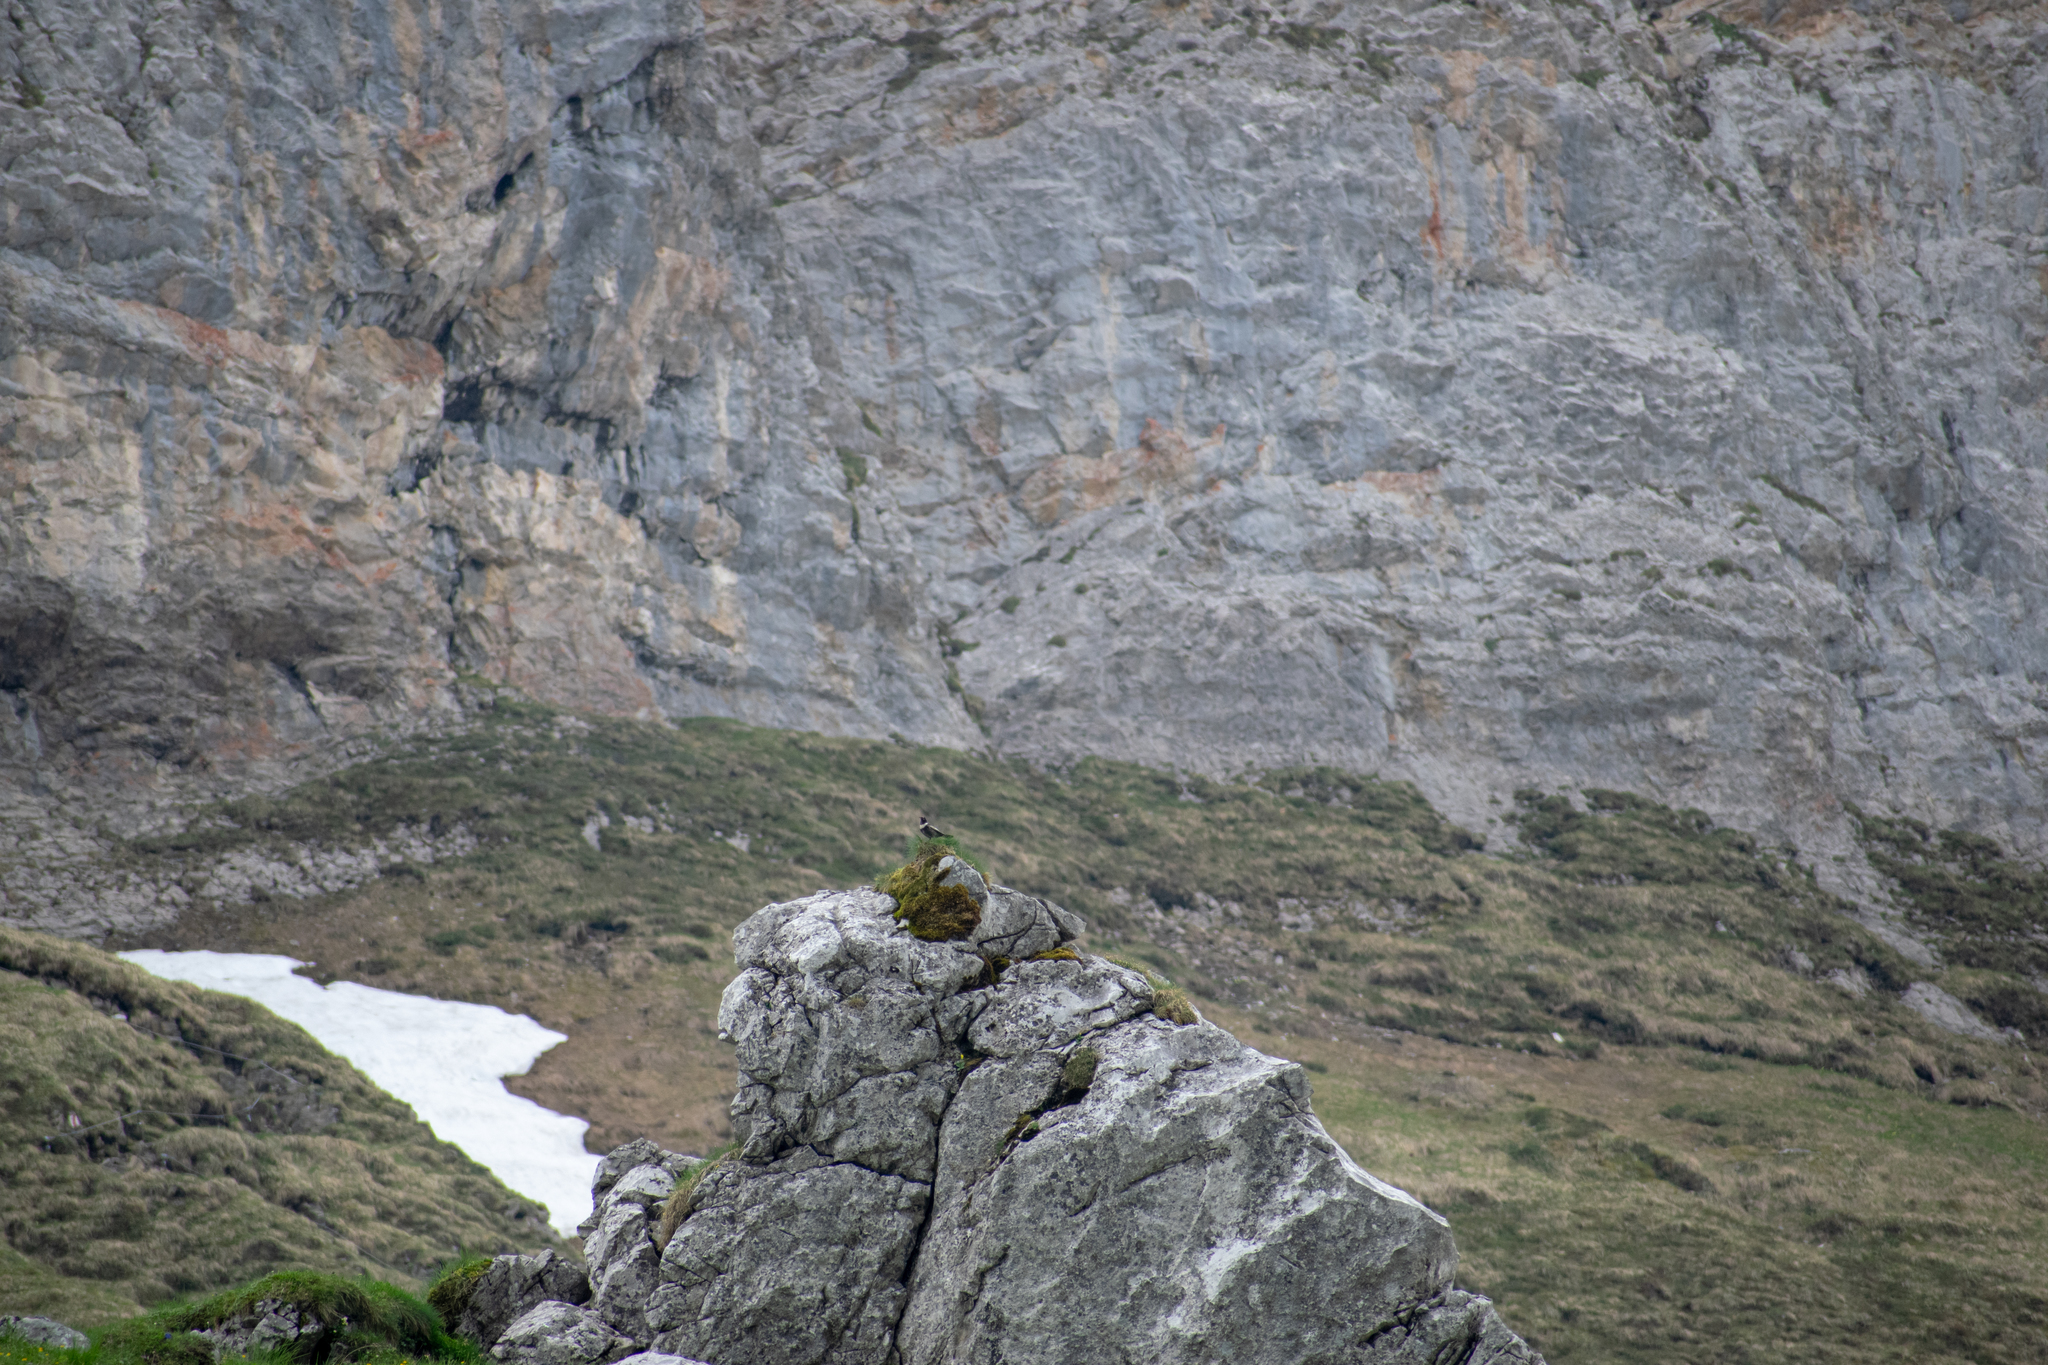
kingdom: Animalia
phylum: Chordata
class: Aves
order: Passeriformes
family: Turdidae
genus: Turdus
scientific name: Turdus torquatus
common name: Ring ouzel
